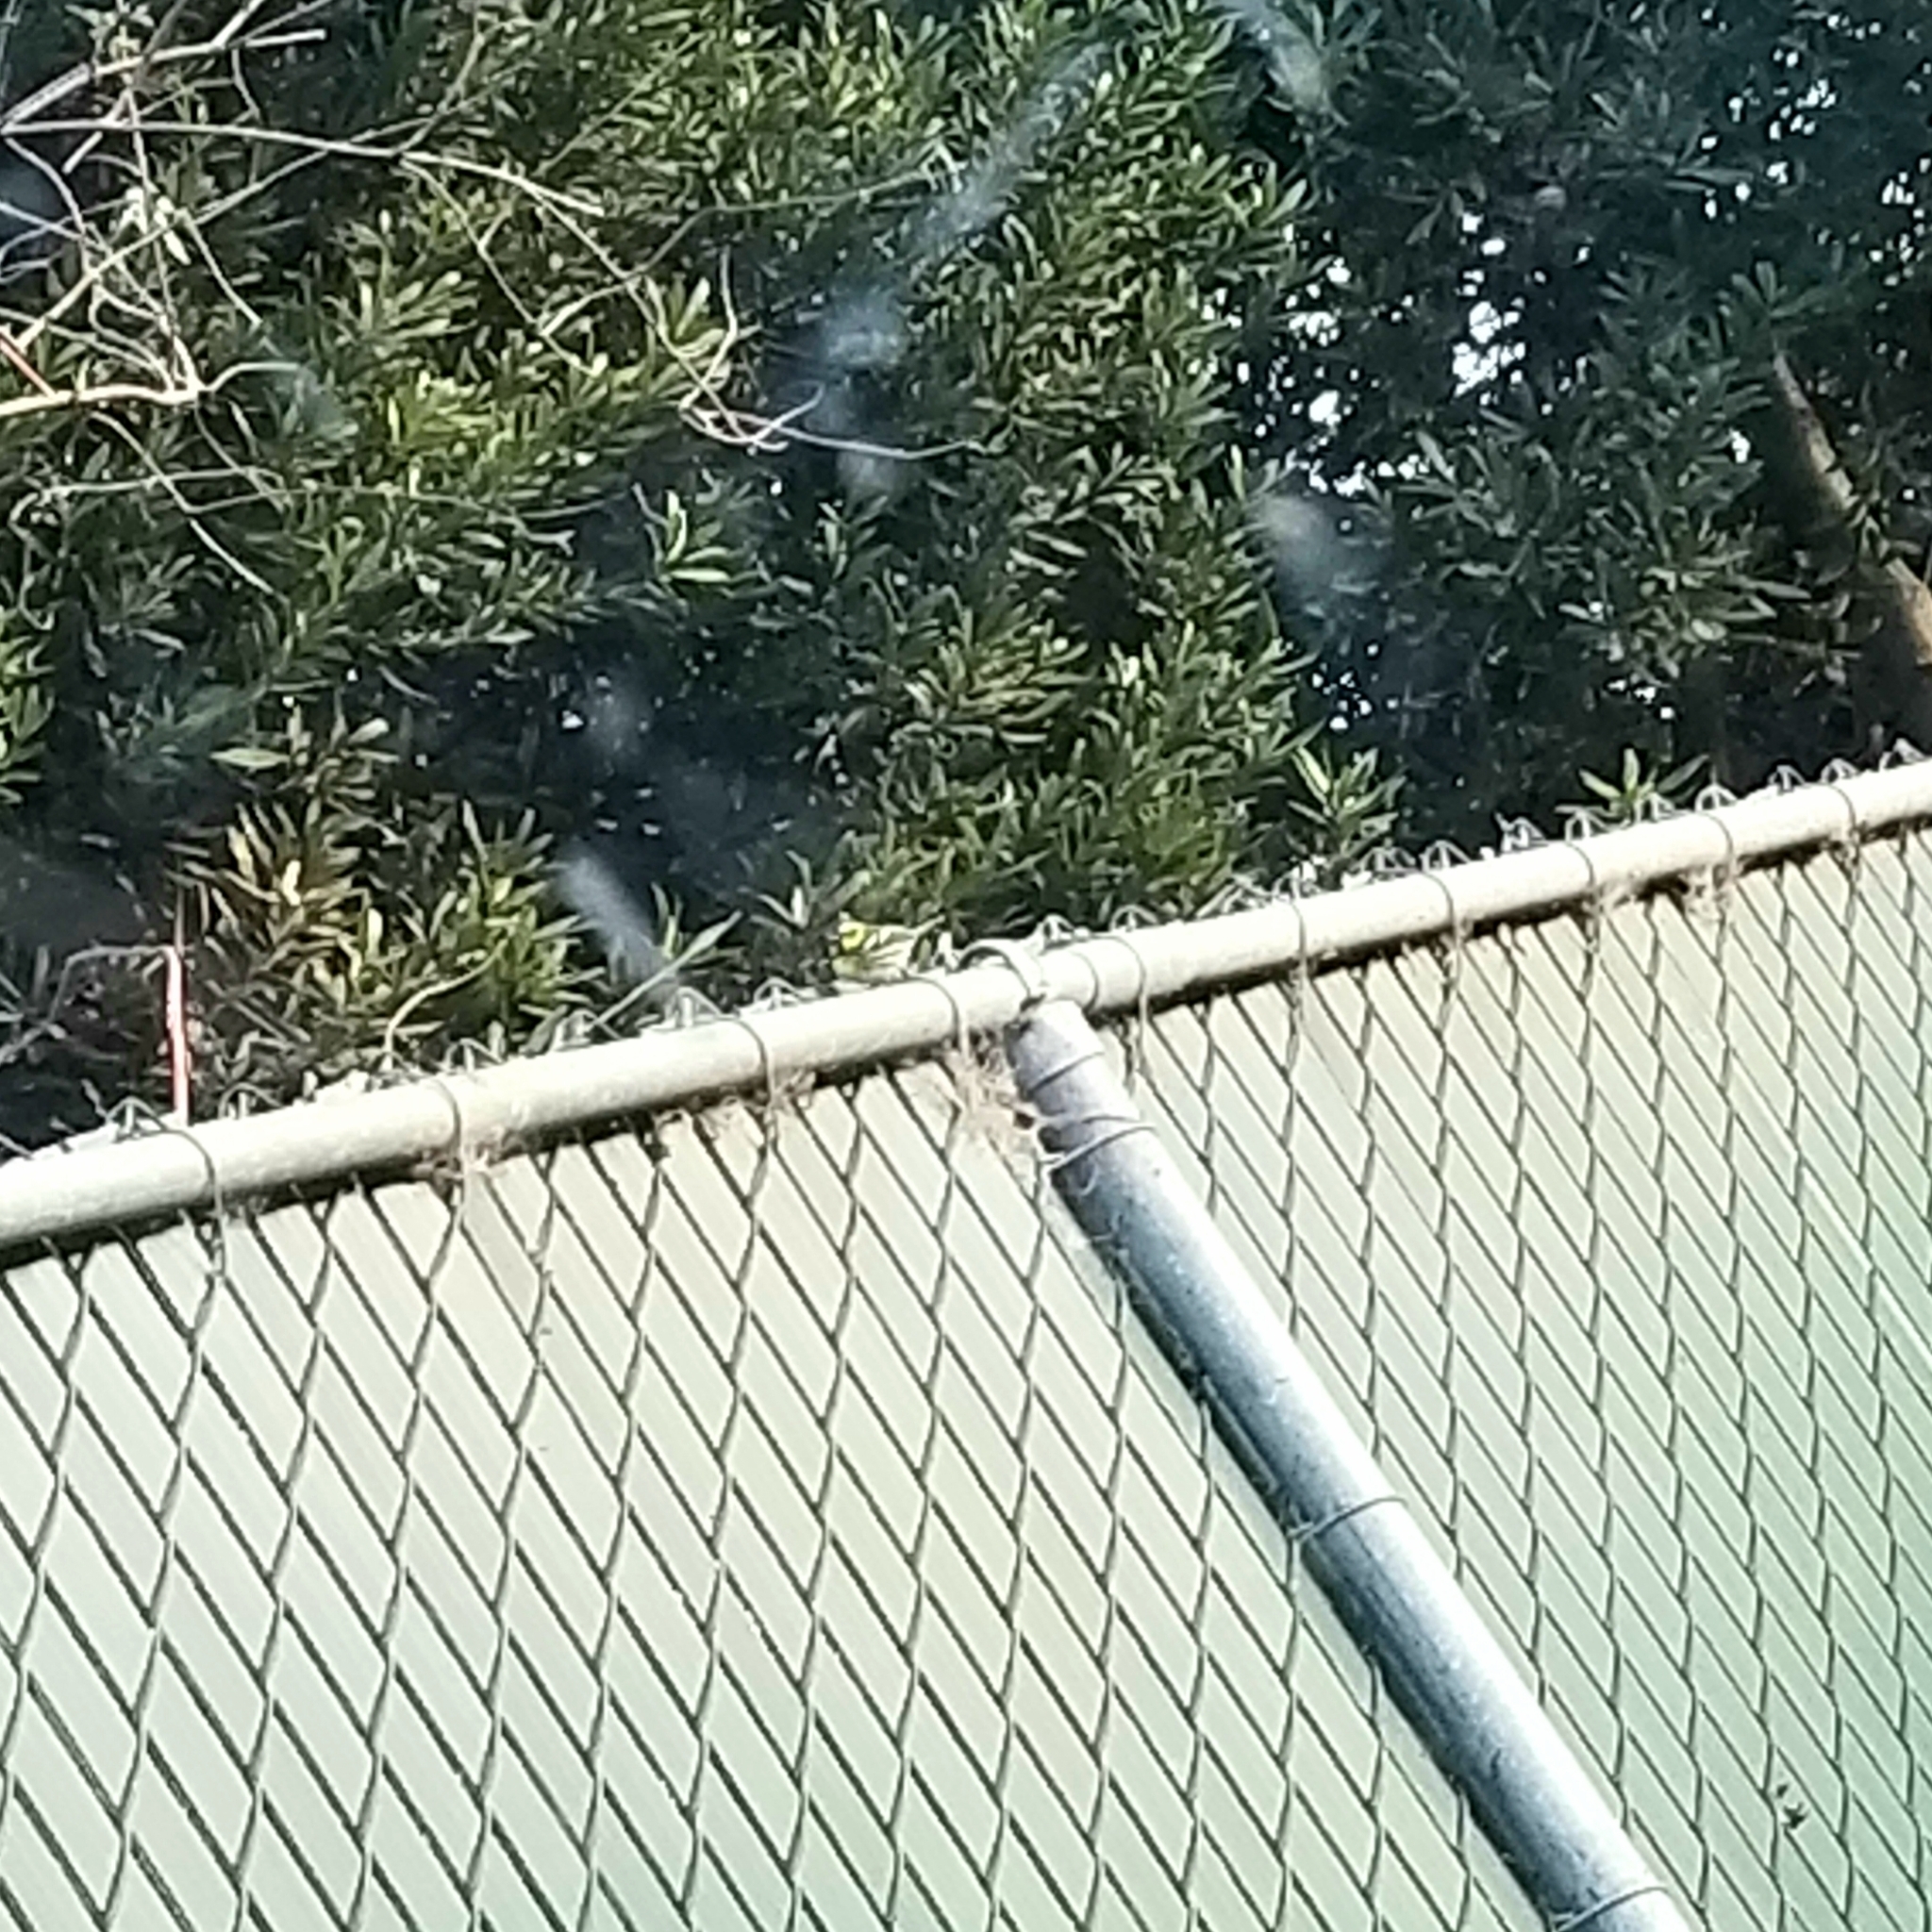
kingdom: Animalia
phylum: Chordata
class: Aves
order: Passeriformes
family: Parulidae
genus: Setophaga
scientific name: Setophaga townsendi
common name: Townsend's warbler
